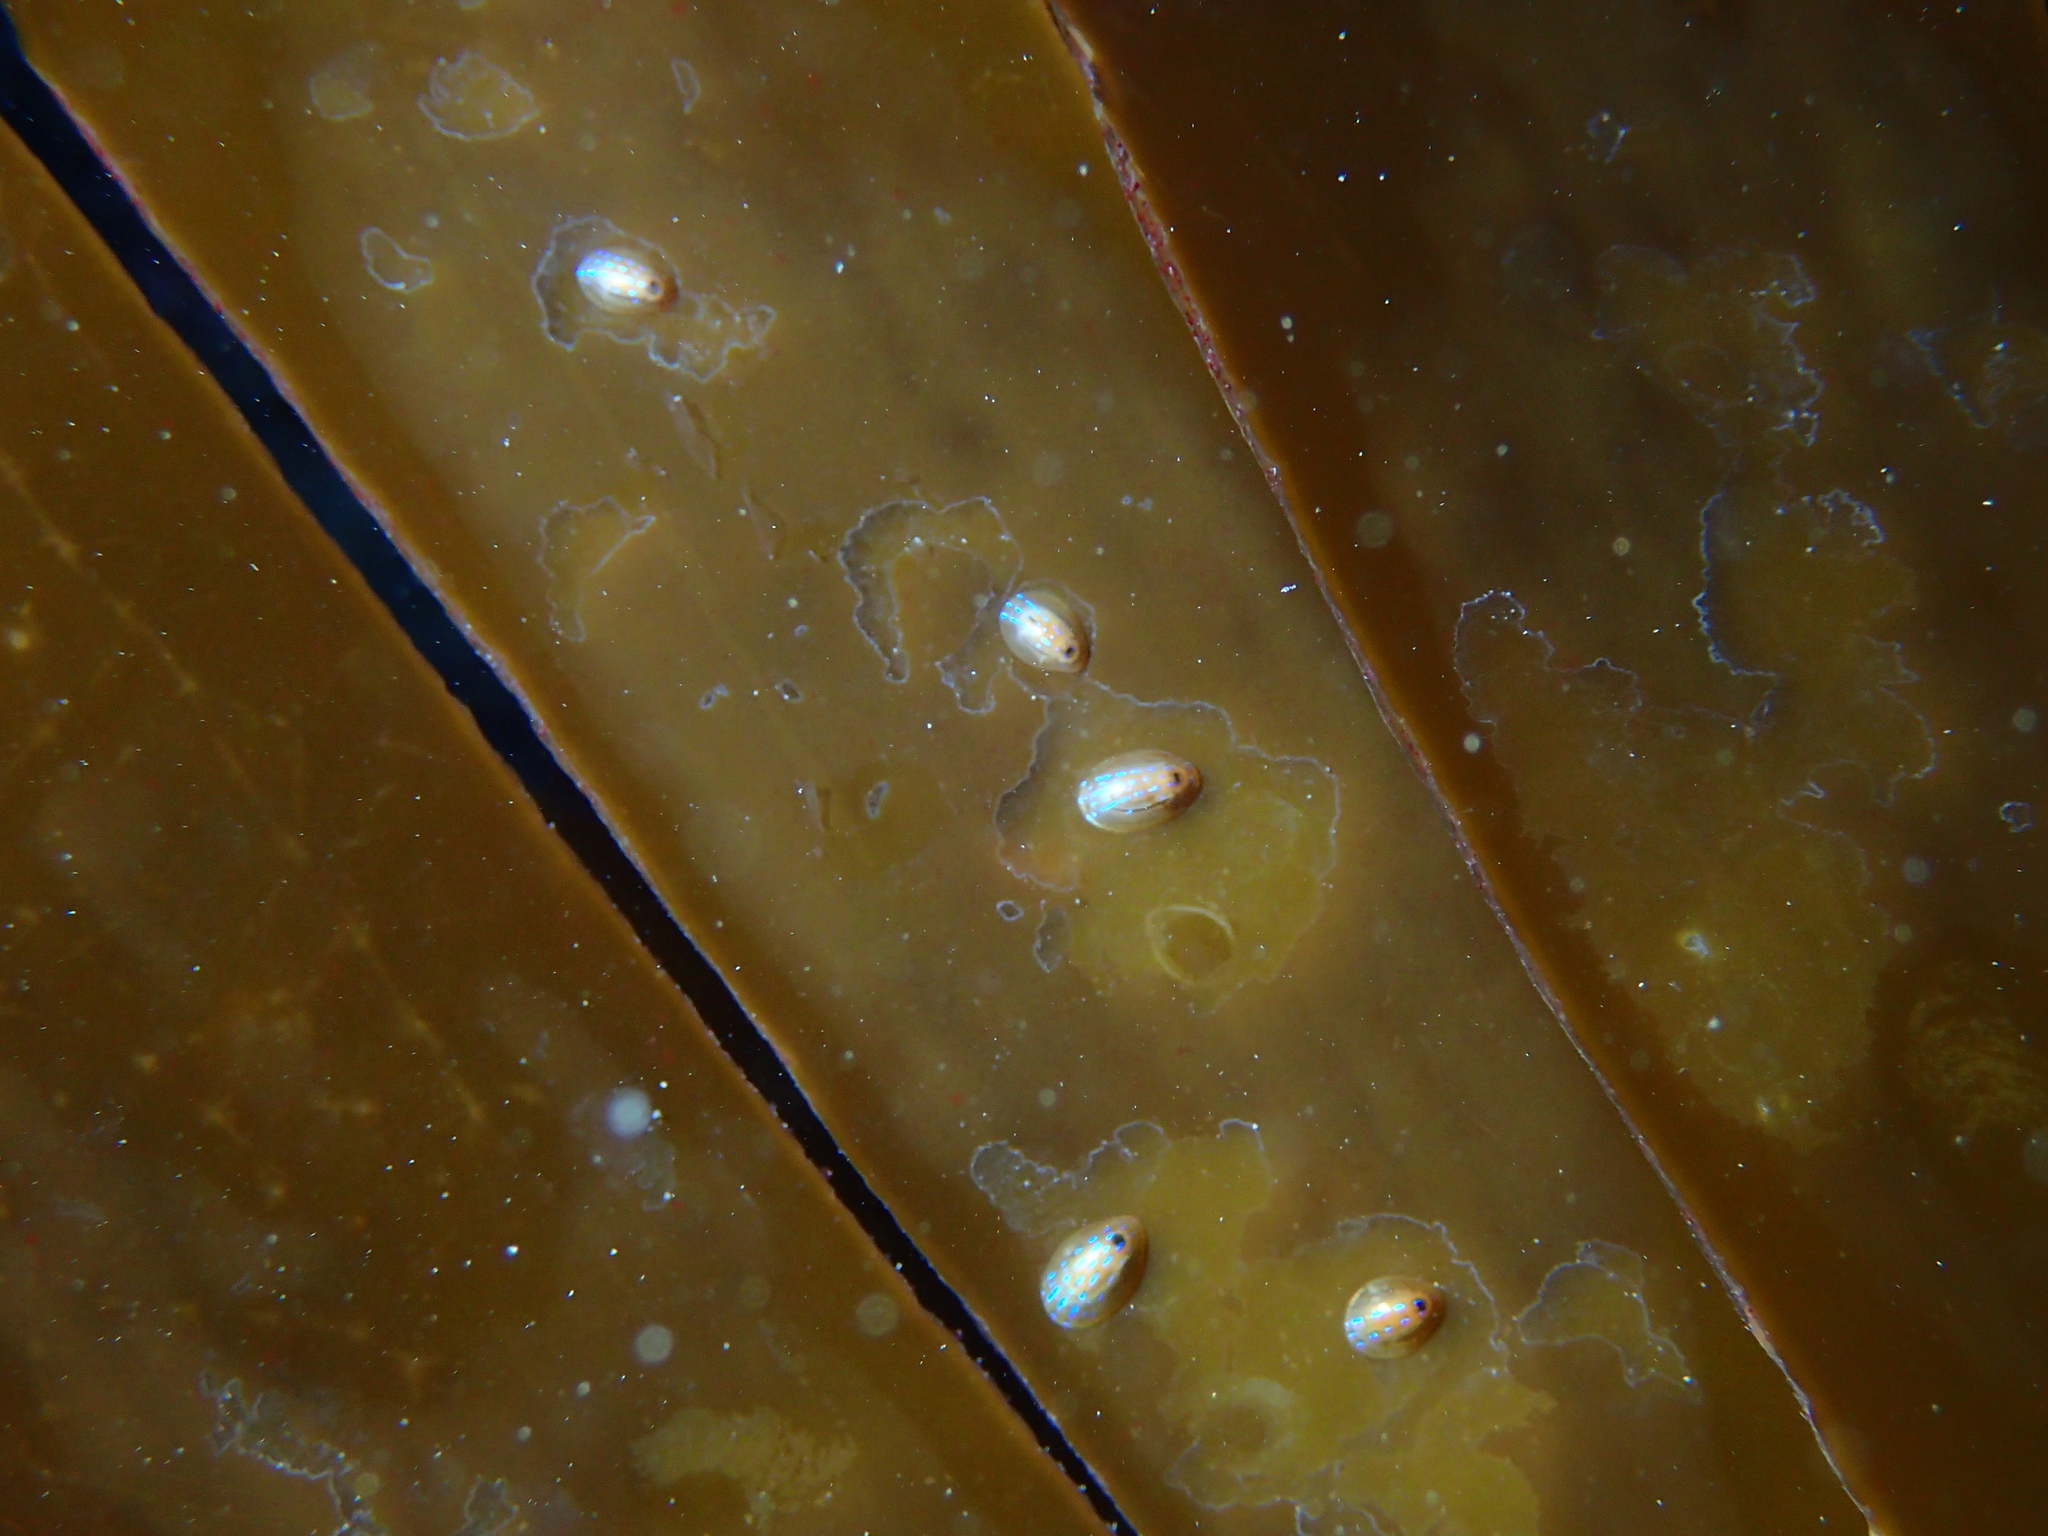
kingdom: Animalia
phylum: Mollusca
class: Gastropoda
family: Patellidae
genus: Patella
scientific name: Patella pellucida
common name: Blue-rayed limpet
